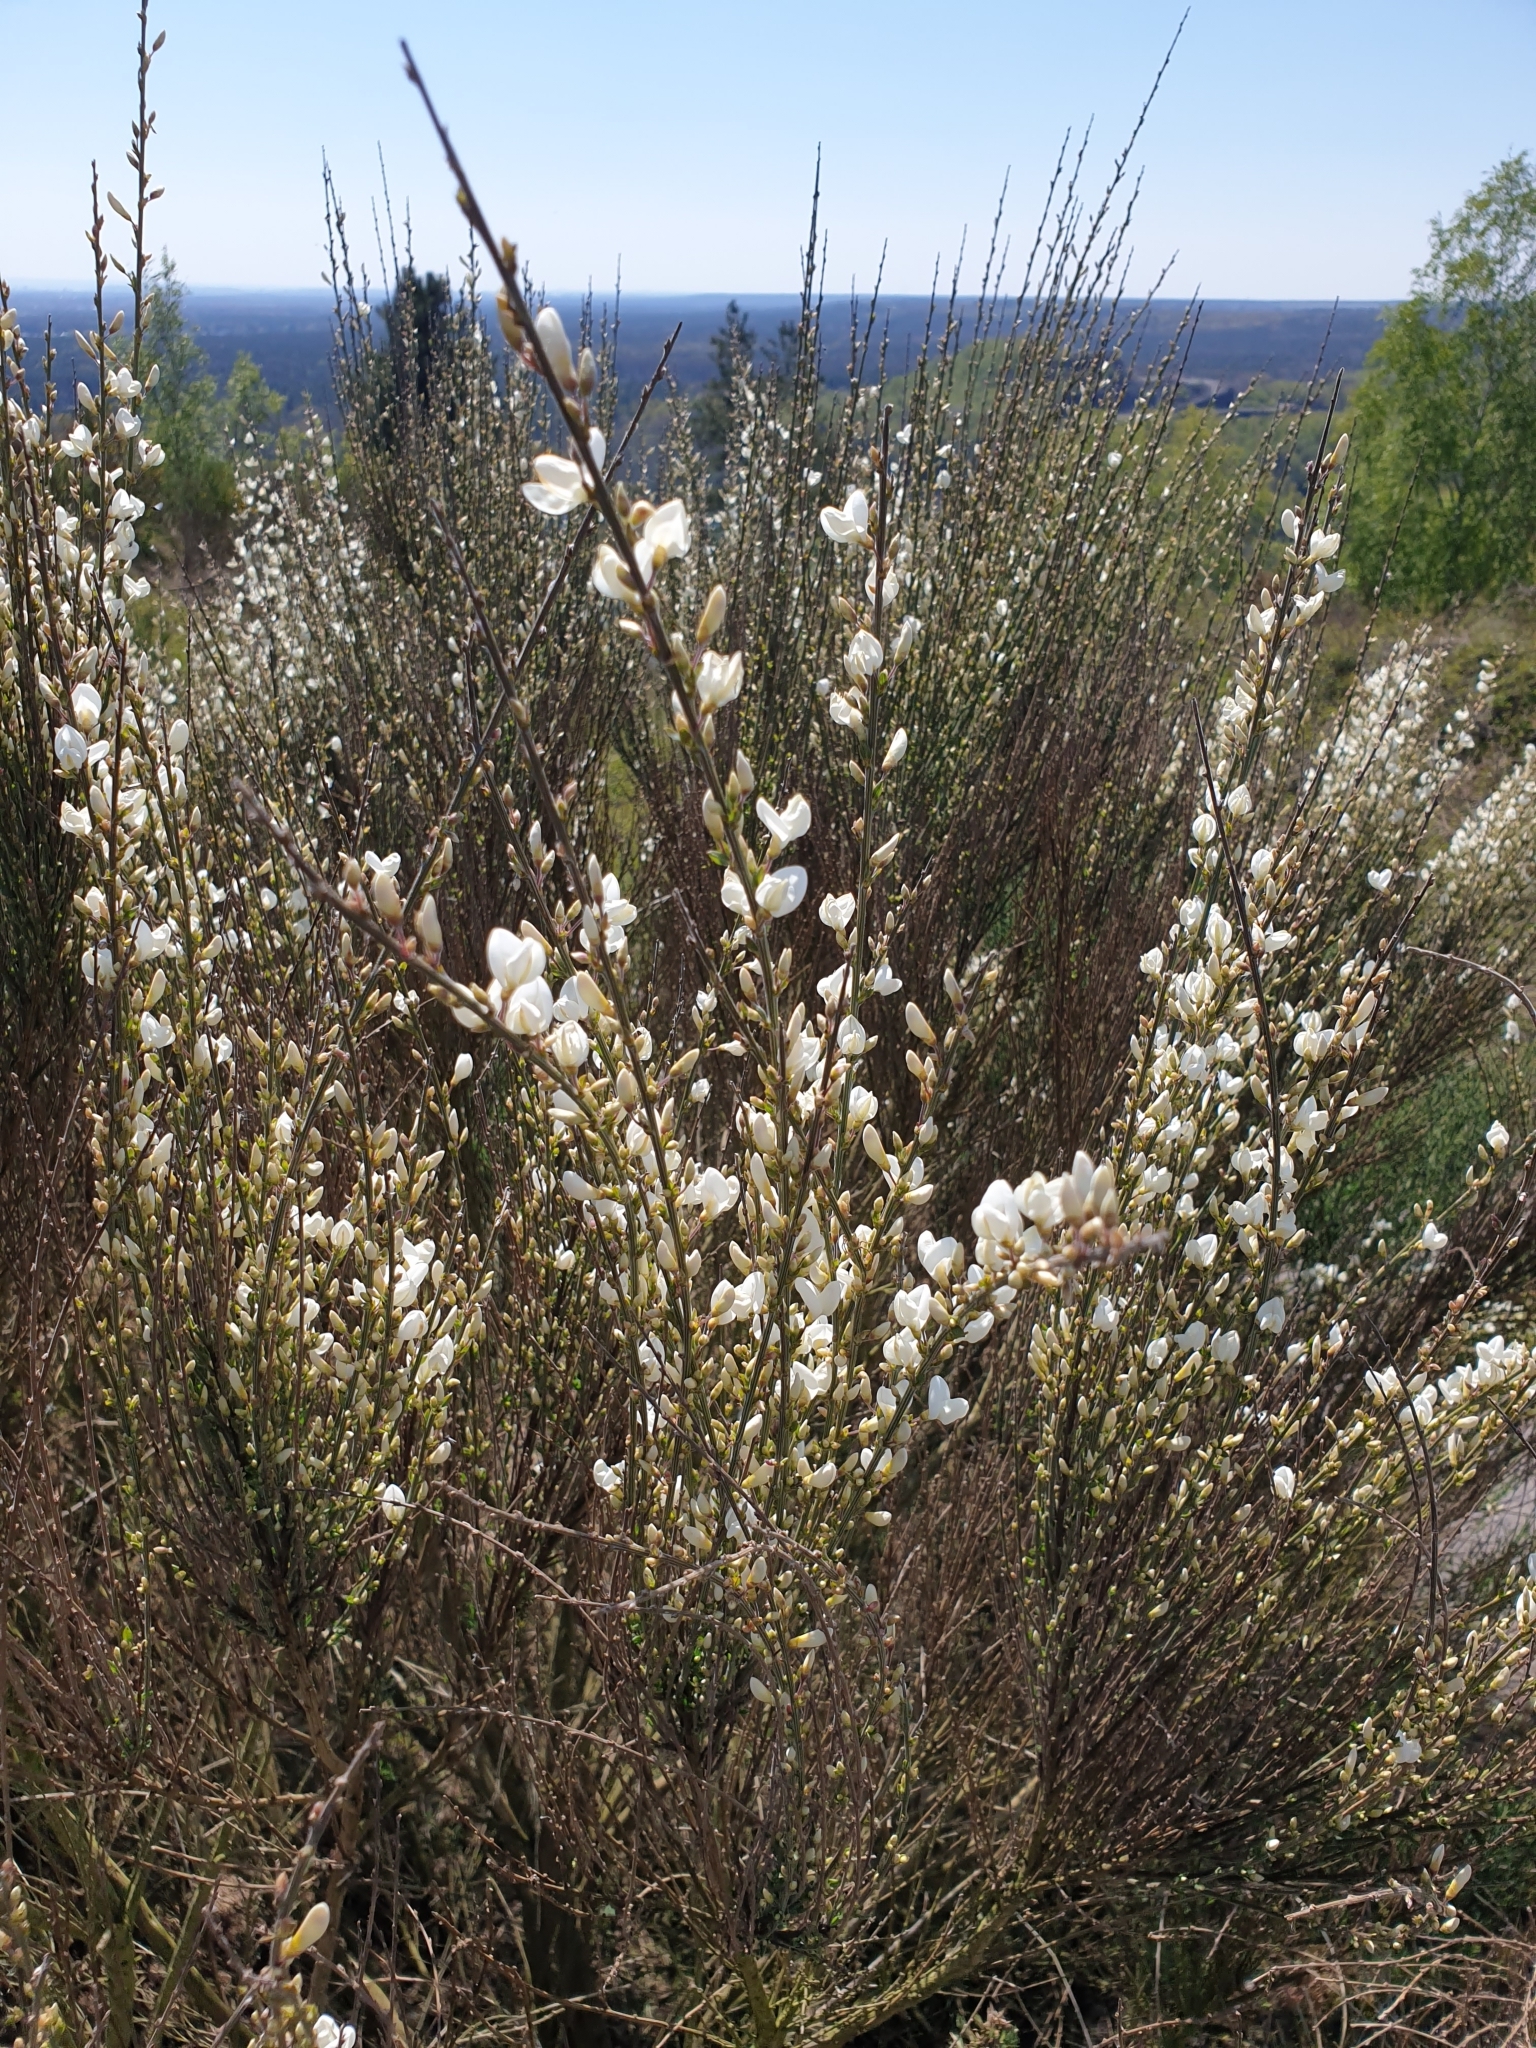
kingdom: Plantae
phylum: Tracheophyta
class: Magnoliopsida
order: Fabales
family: Fabaceae
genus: Cytisus
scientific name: Cytisus multiflorus
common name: White broom
